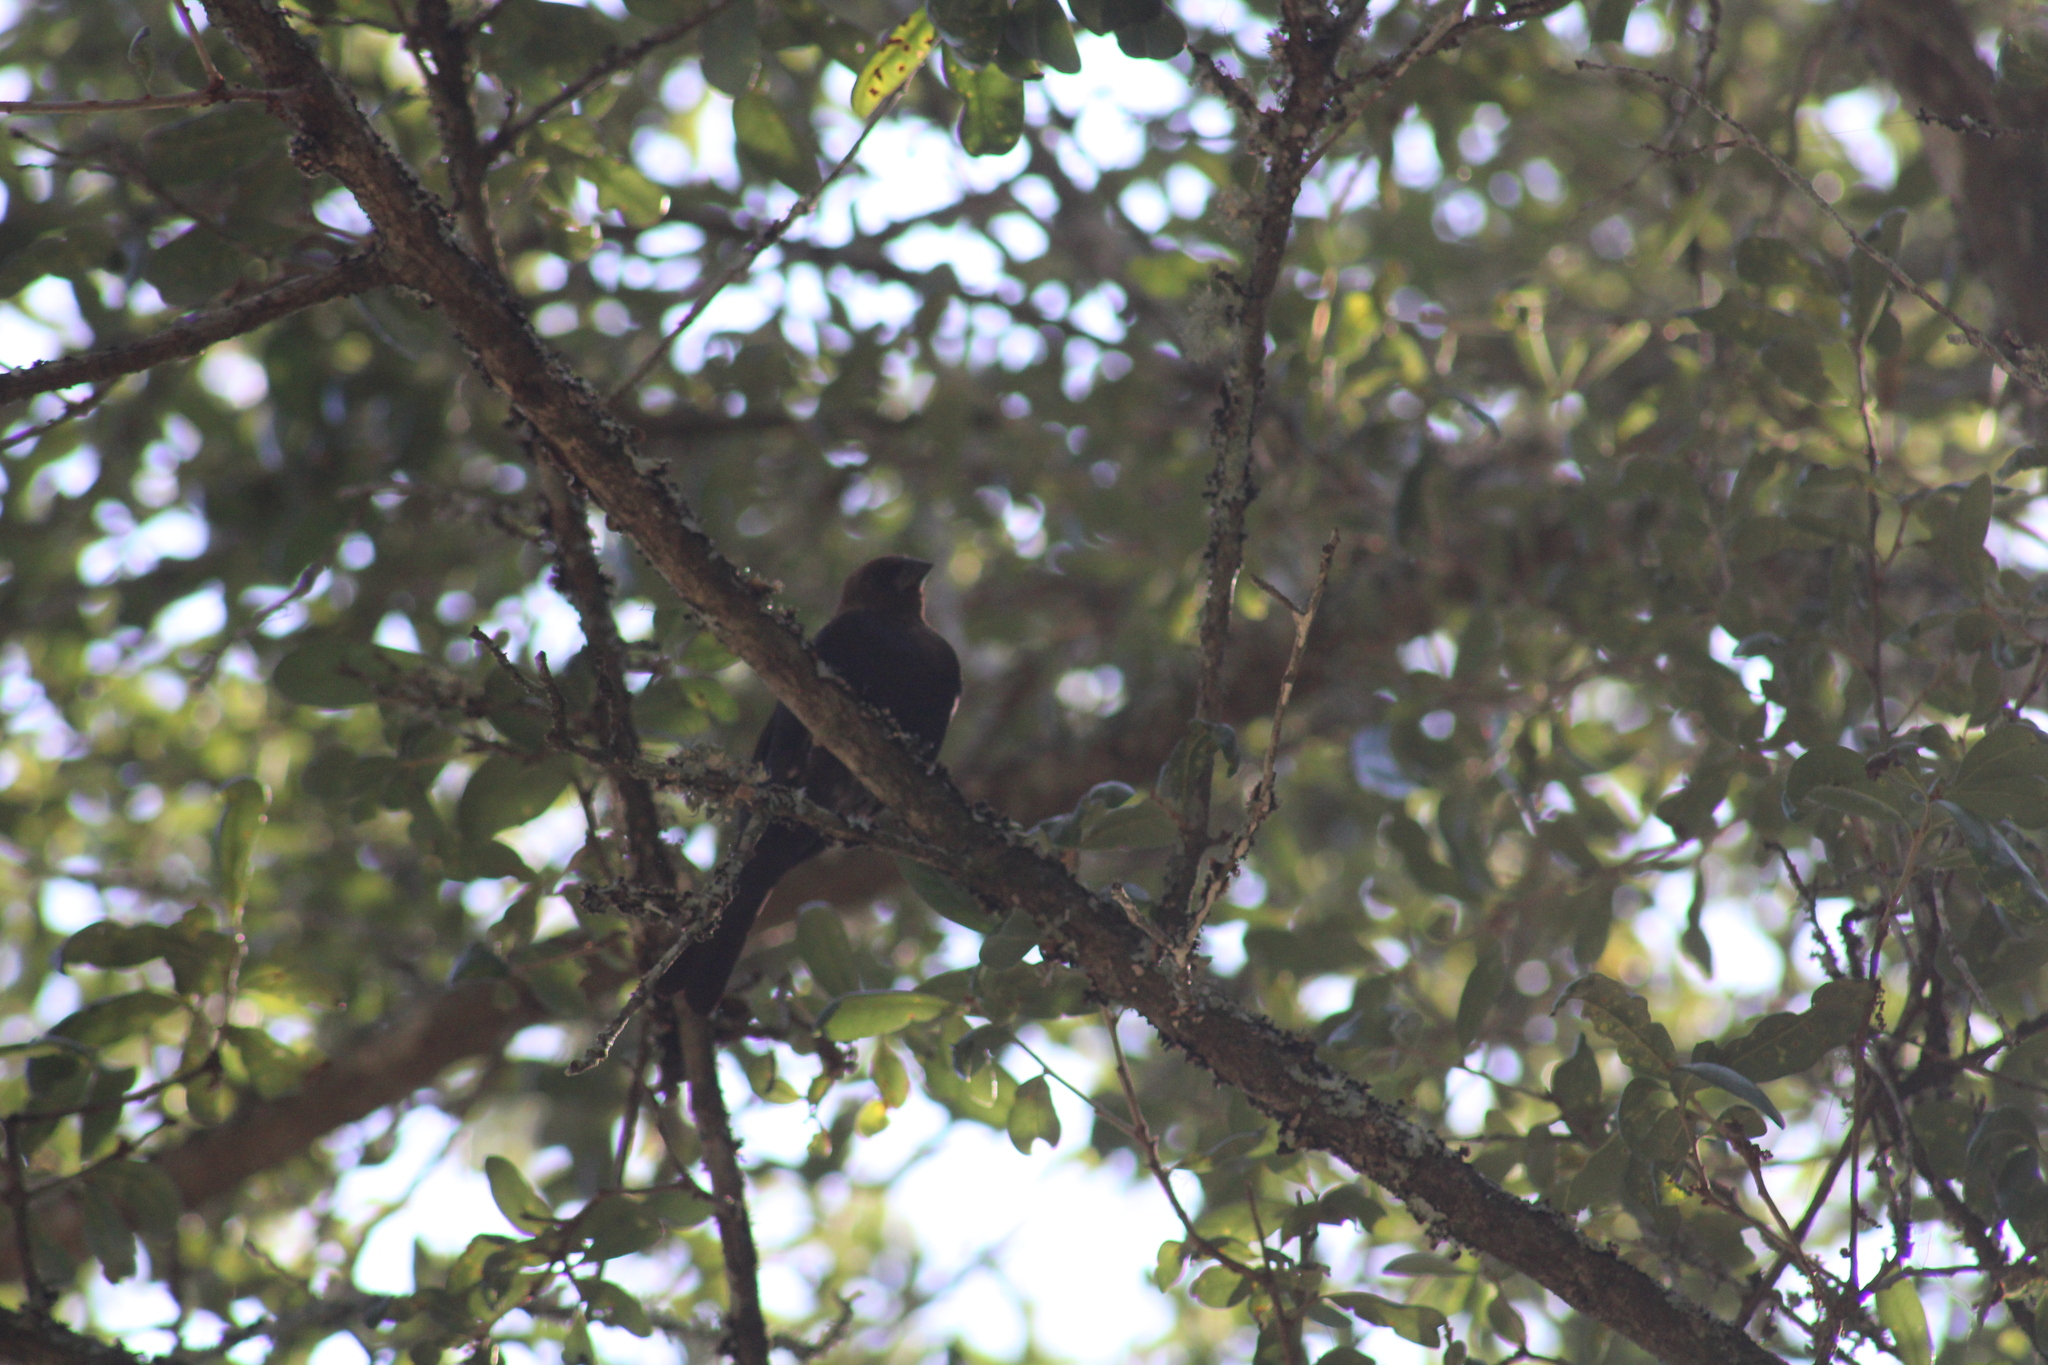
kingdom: Animalia
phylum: Chordata
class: Aves
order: Passeriformes
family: Icteridae
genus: Molothrus
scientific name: Molothrus ater
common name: Brown-headed cowbird
